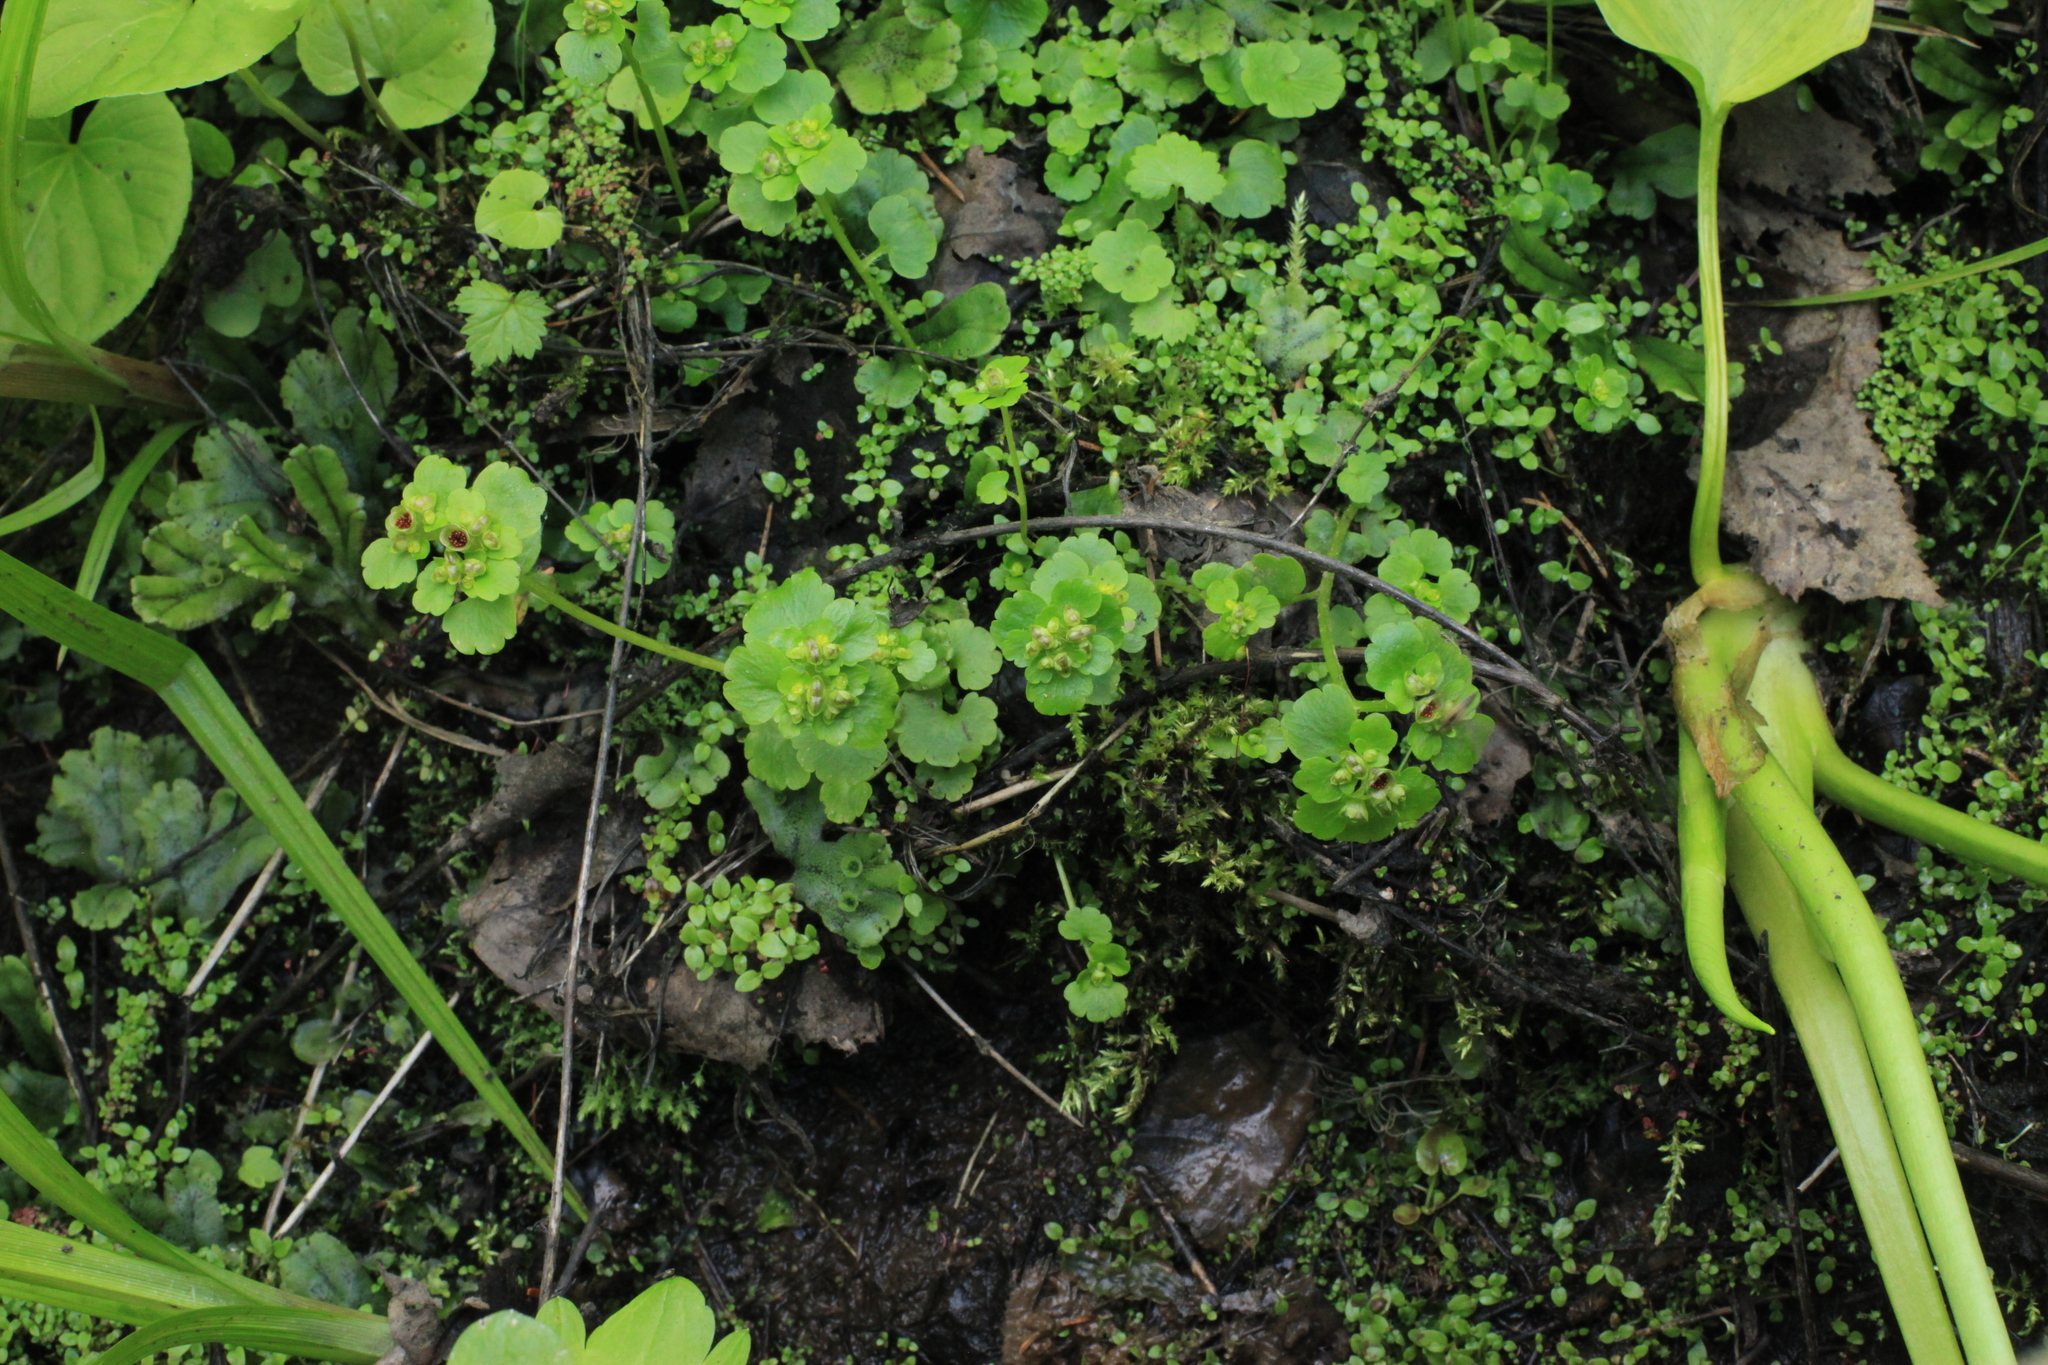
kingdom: Plantae
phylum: Tracheophyta
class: Magnoliopsida
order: Saxifragales
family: Saxifragaceae
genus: Chrysosplenium
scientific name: Chrysosplenium alternifolium
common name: Alternate-leaved golden-saxifrage
